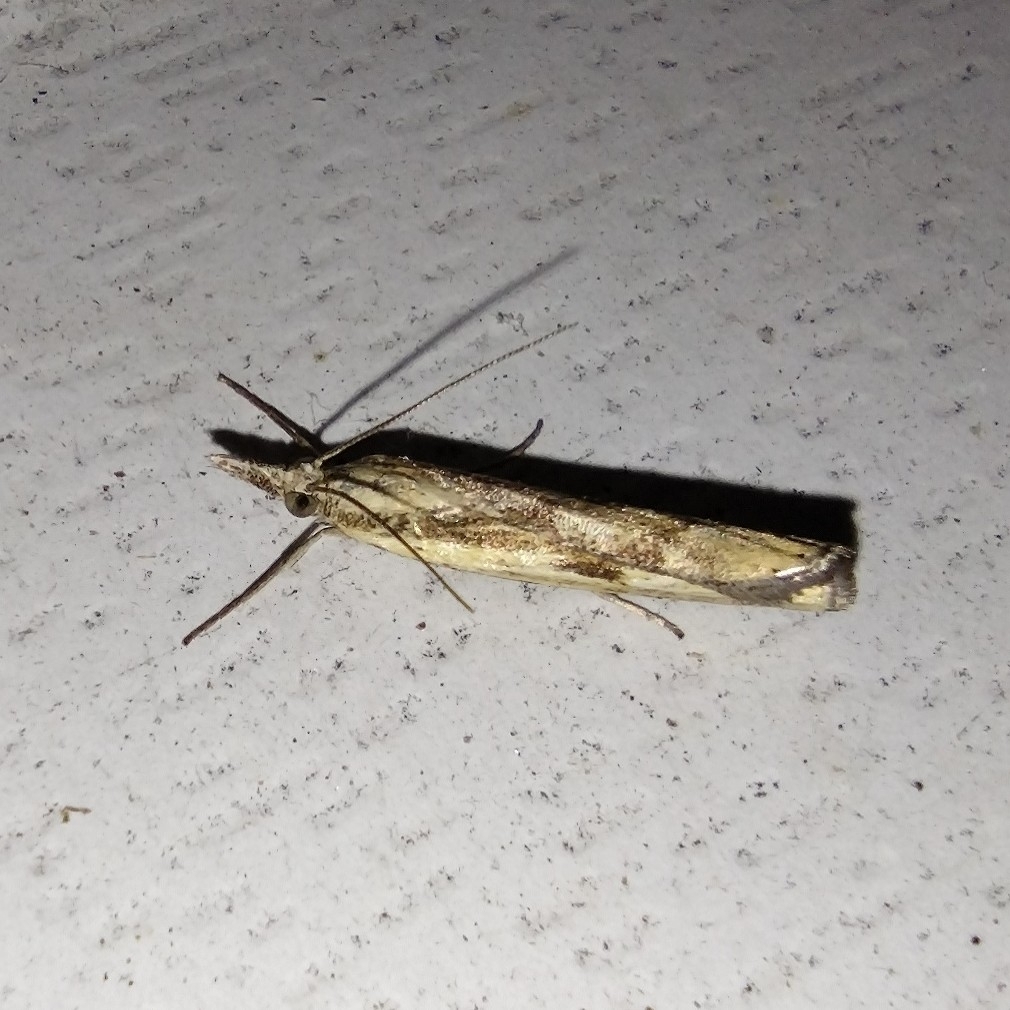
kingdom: Animalia
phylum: Arthropoda
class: Insecta
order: Lepidoptera
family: Crambidae
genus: Agriphila
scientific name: Agriphila inquinatella
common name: Barred grass-veneer
